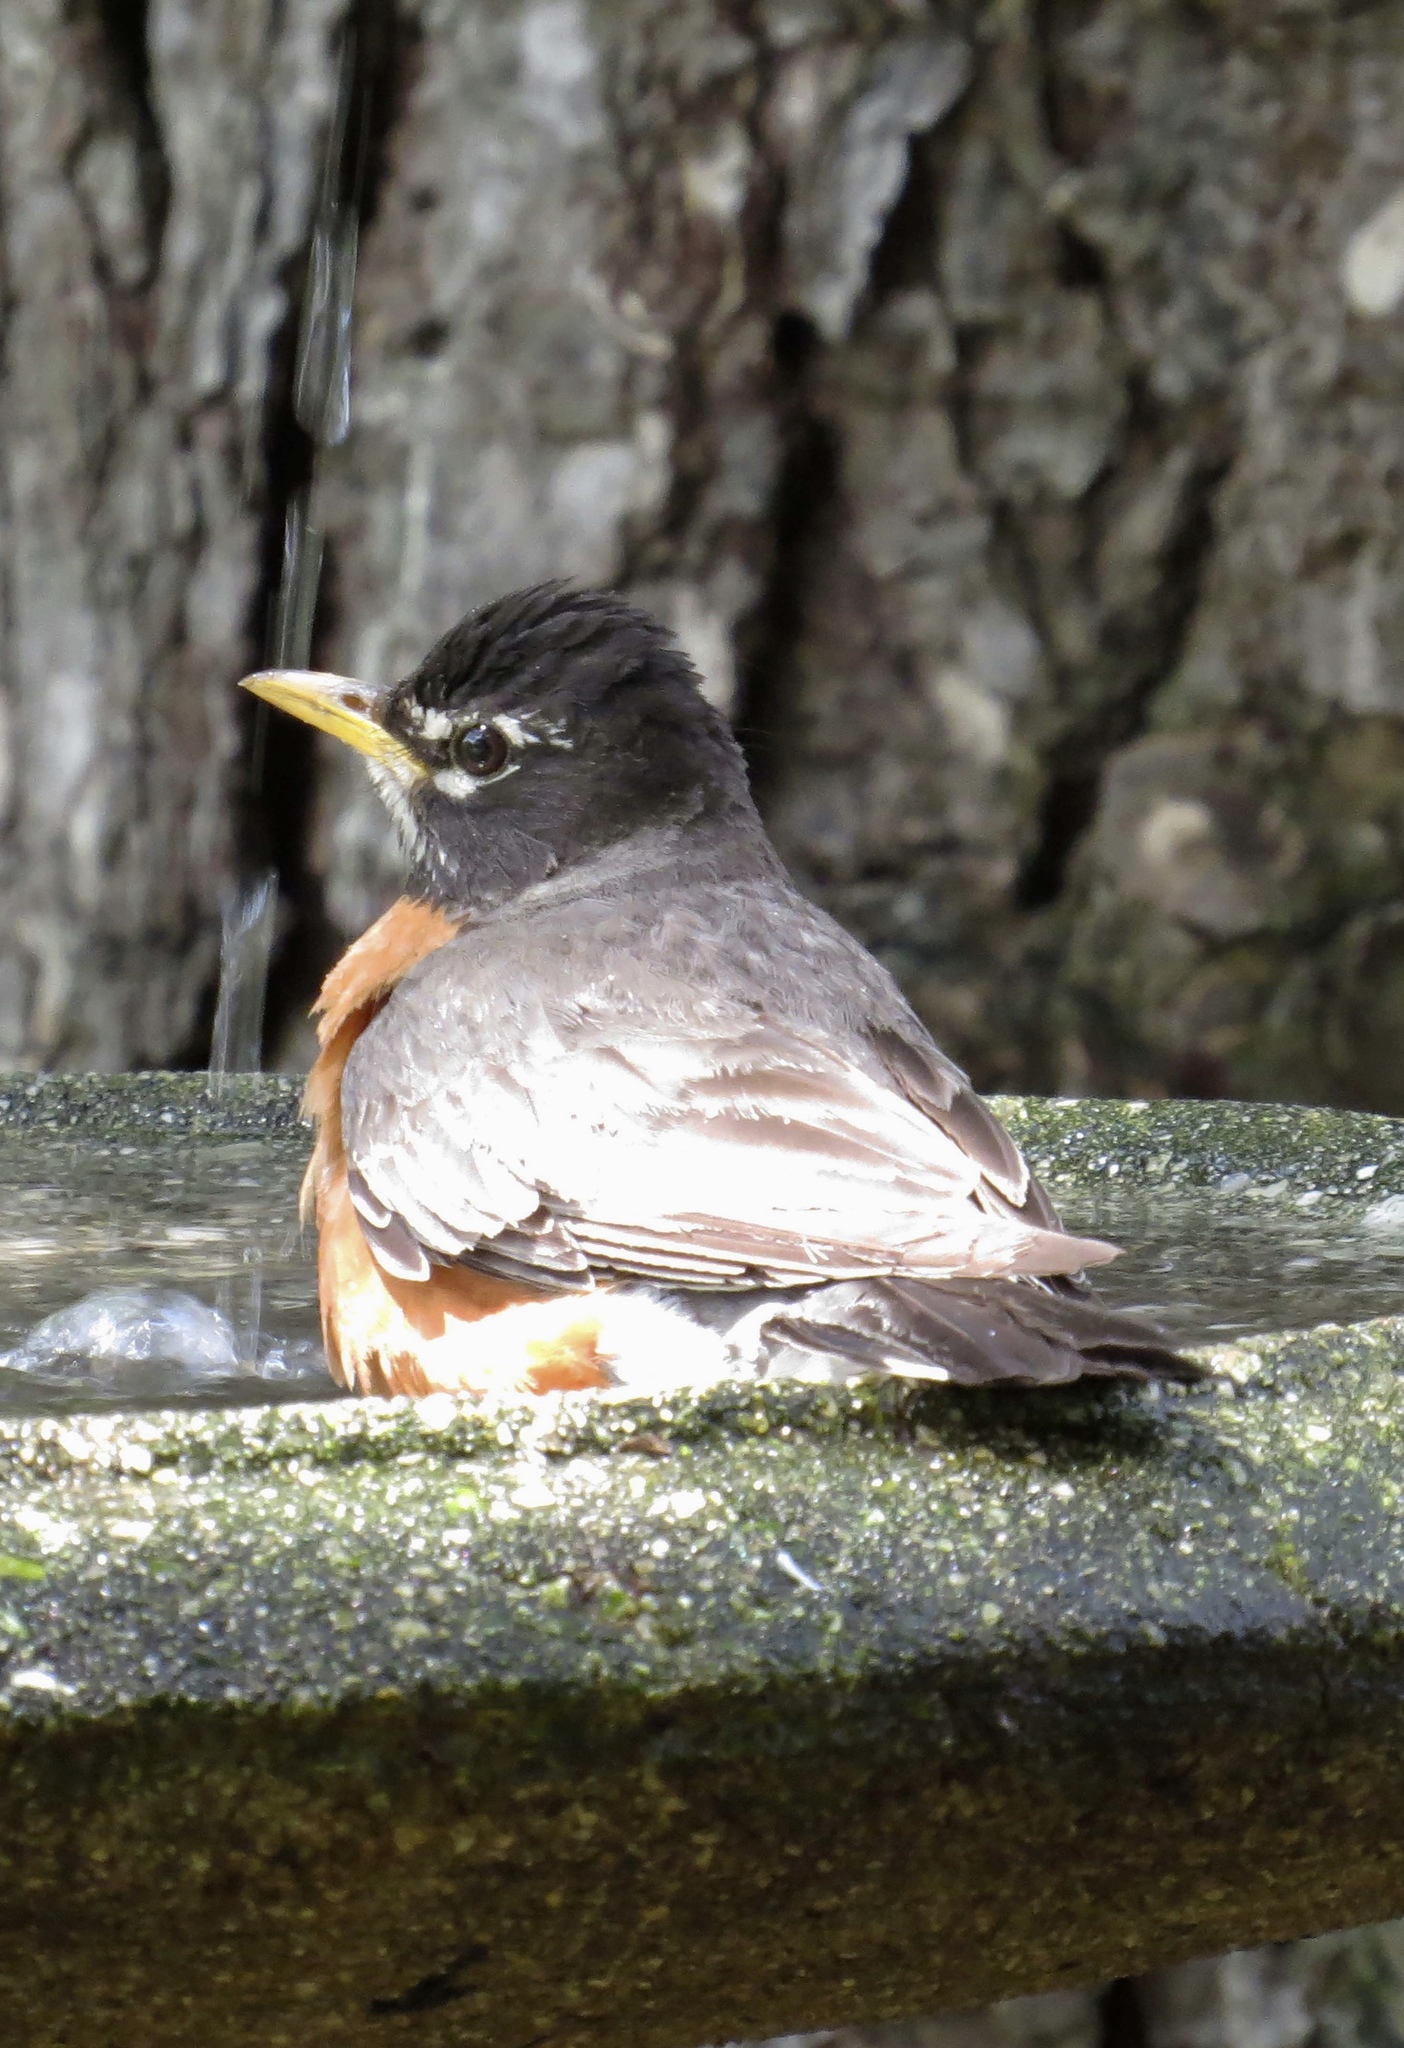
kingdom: Animalia
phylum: Chordata
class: Aves
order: Passeriformes
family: Turdidae
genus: Turdus
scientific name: Turdus migratorius
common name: American robin
